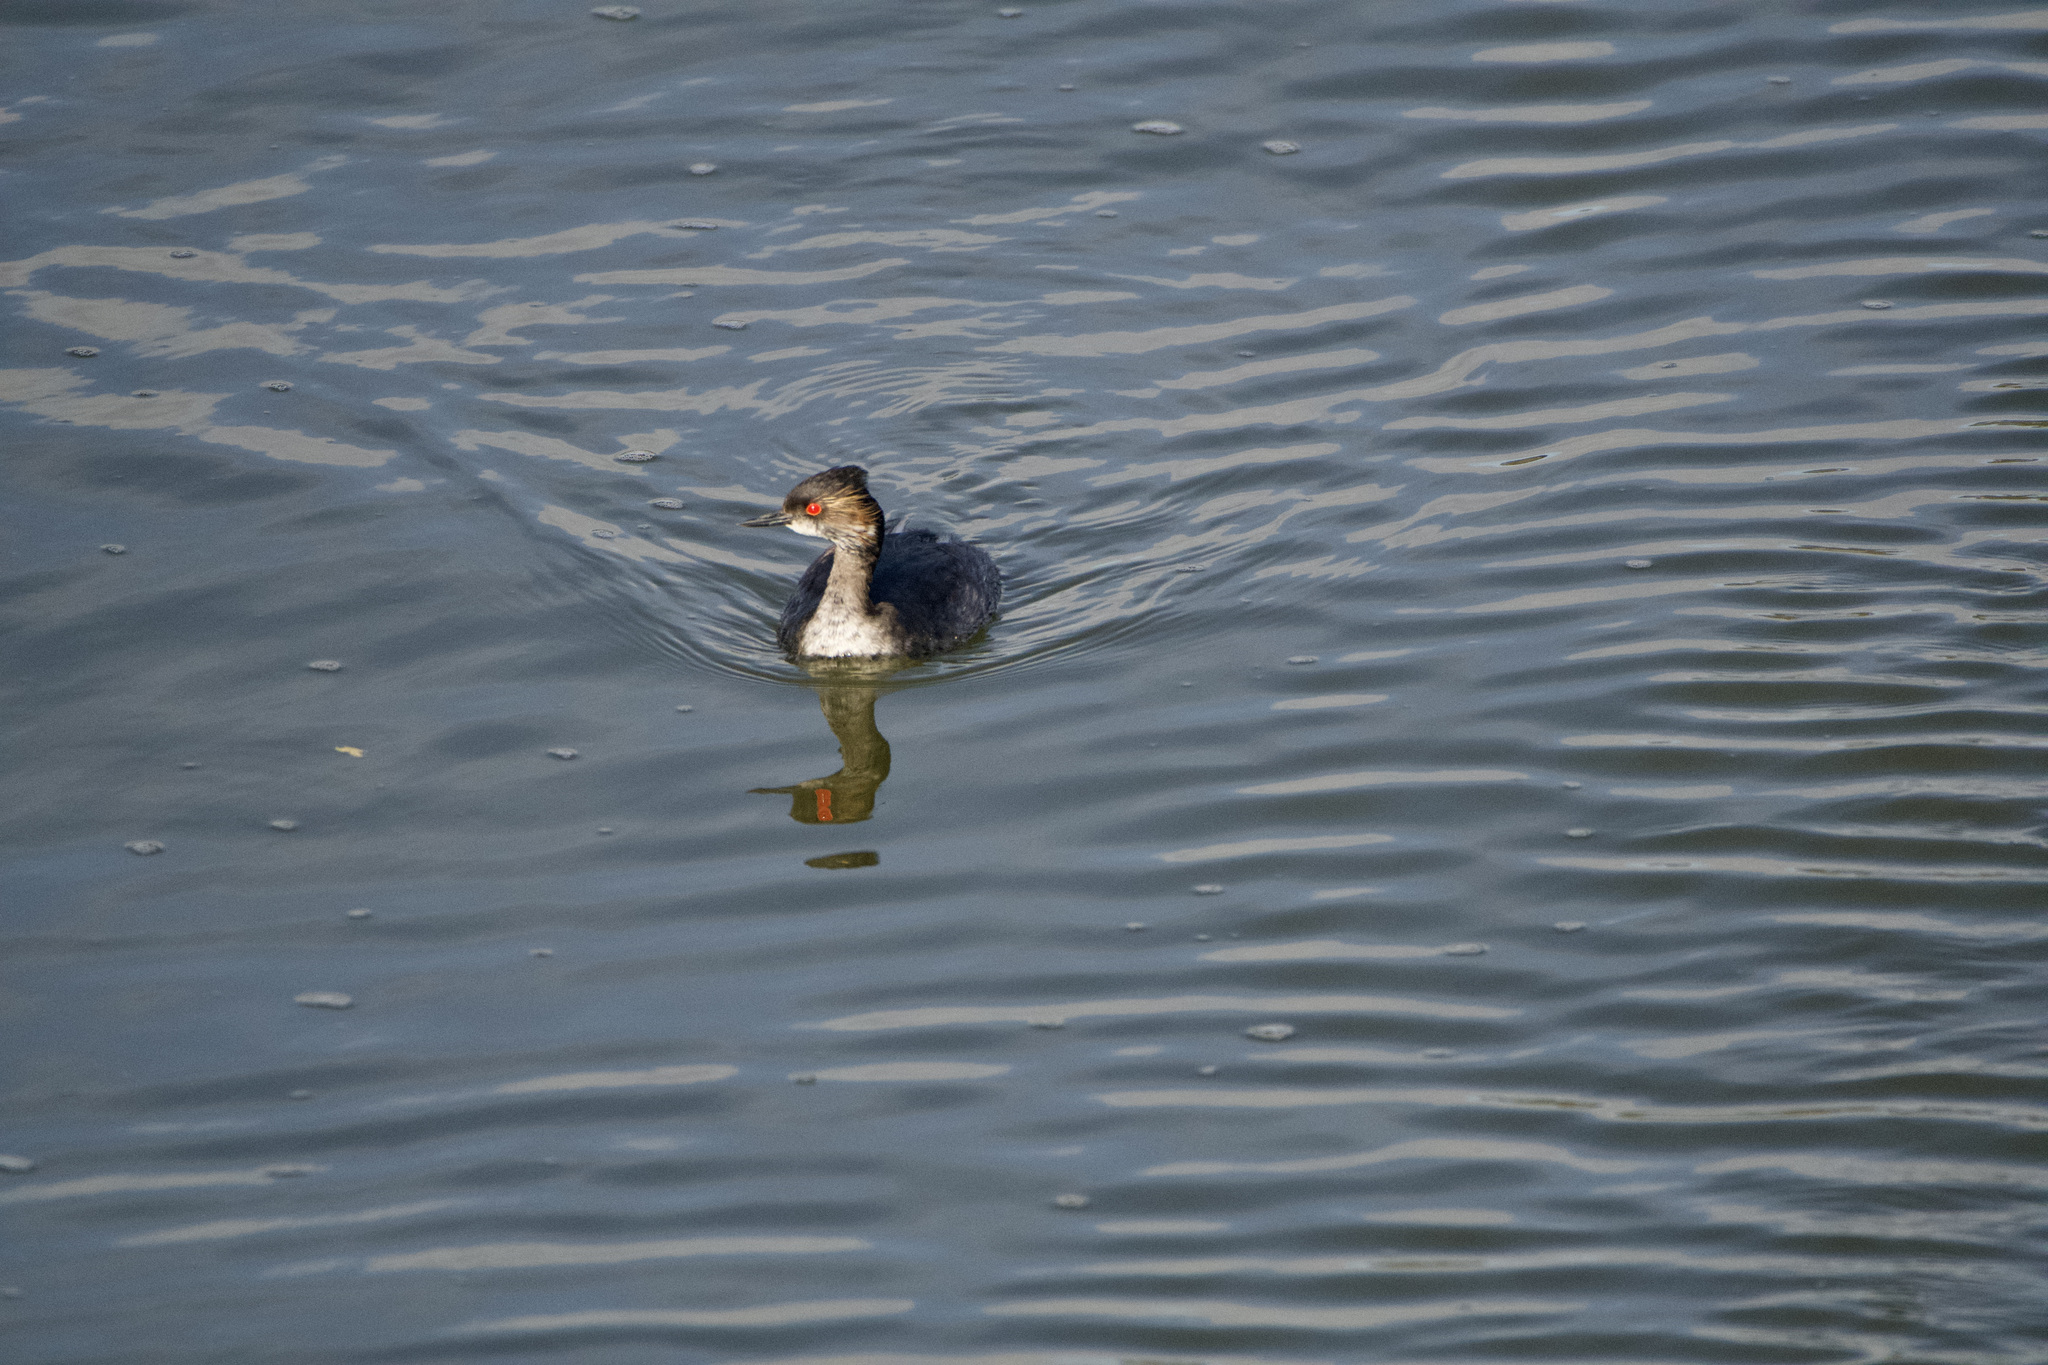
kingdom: Animalia
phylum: Chordata
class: Aves
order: Podicipediformes
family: Podicipedidae
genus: Podiceps
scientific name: Podiceps nigricollis
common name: Black-necked grebe
